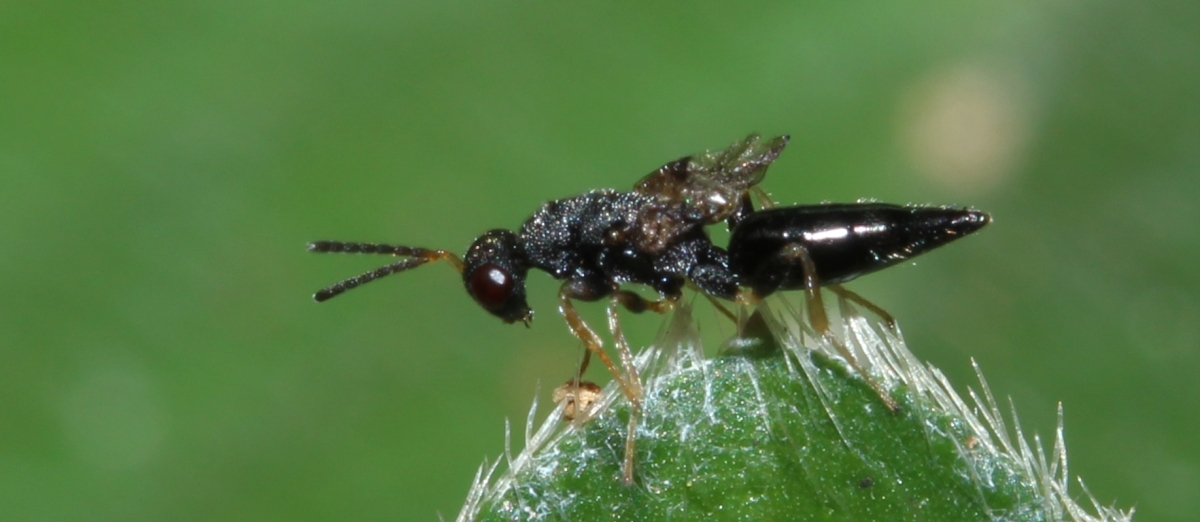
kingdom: Animalia
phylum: Arthropoda
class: Insecta
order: Hymenoptera
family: Eurytomidae
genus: Tetramesa
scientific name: Tetramesa
